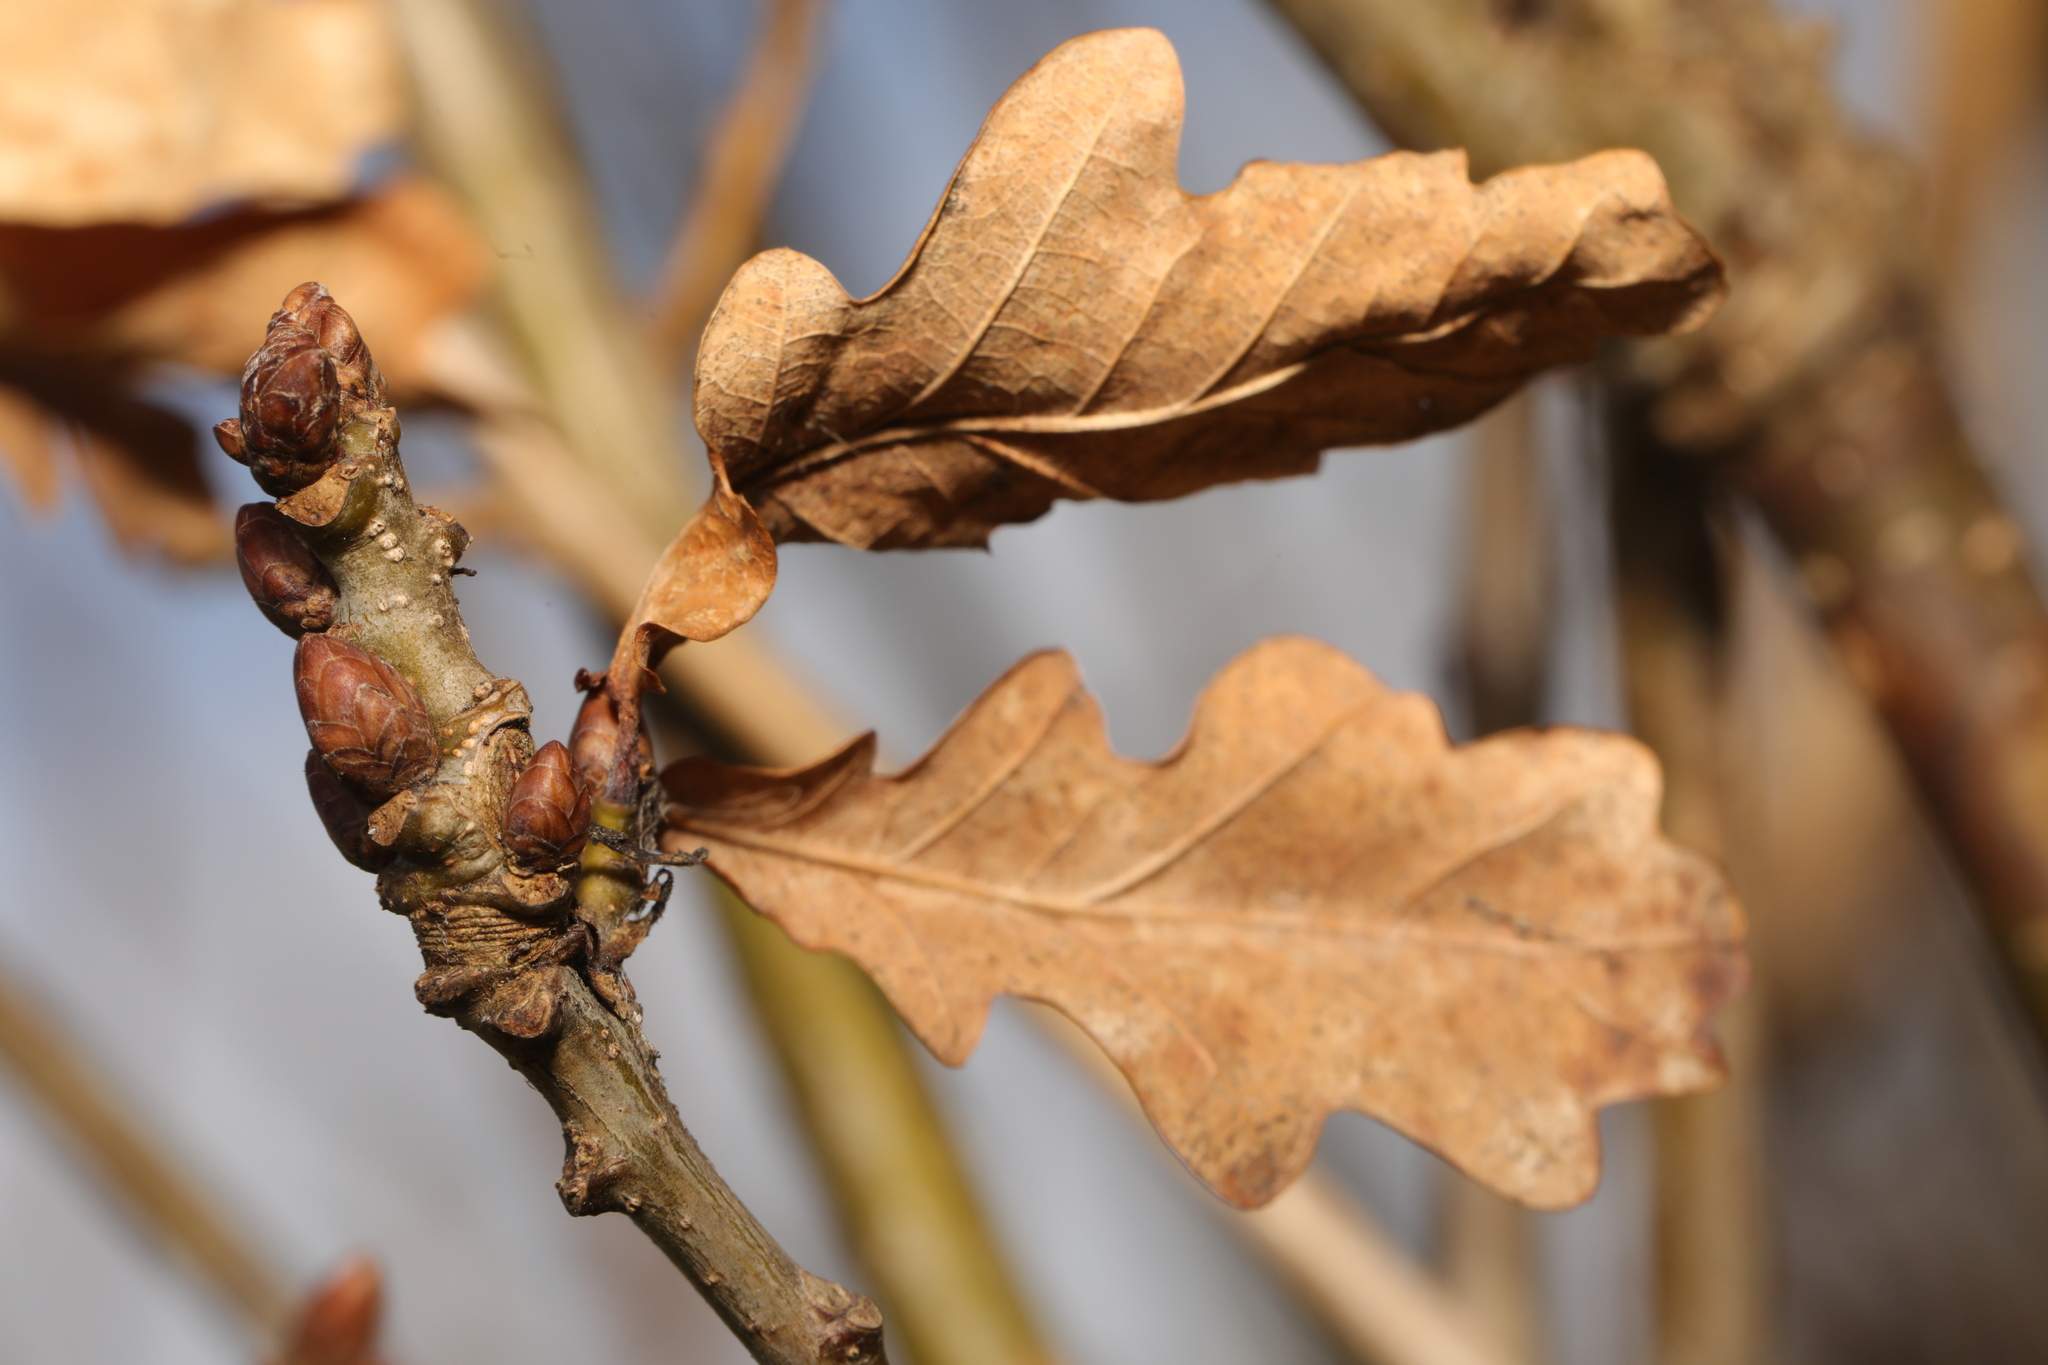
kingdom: Plantae
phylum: Tracheophyta
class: Magnoliopsida
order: Fagales
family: Fagaceae
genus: Quercus
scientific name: Quercus robur
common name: Pedunculate oak
